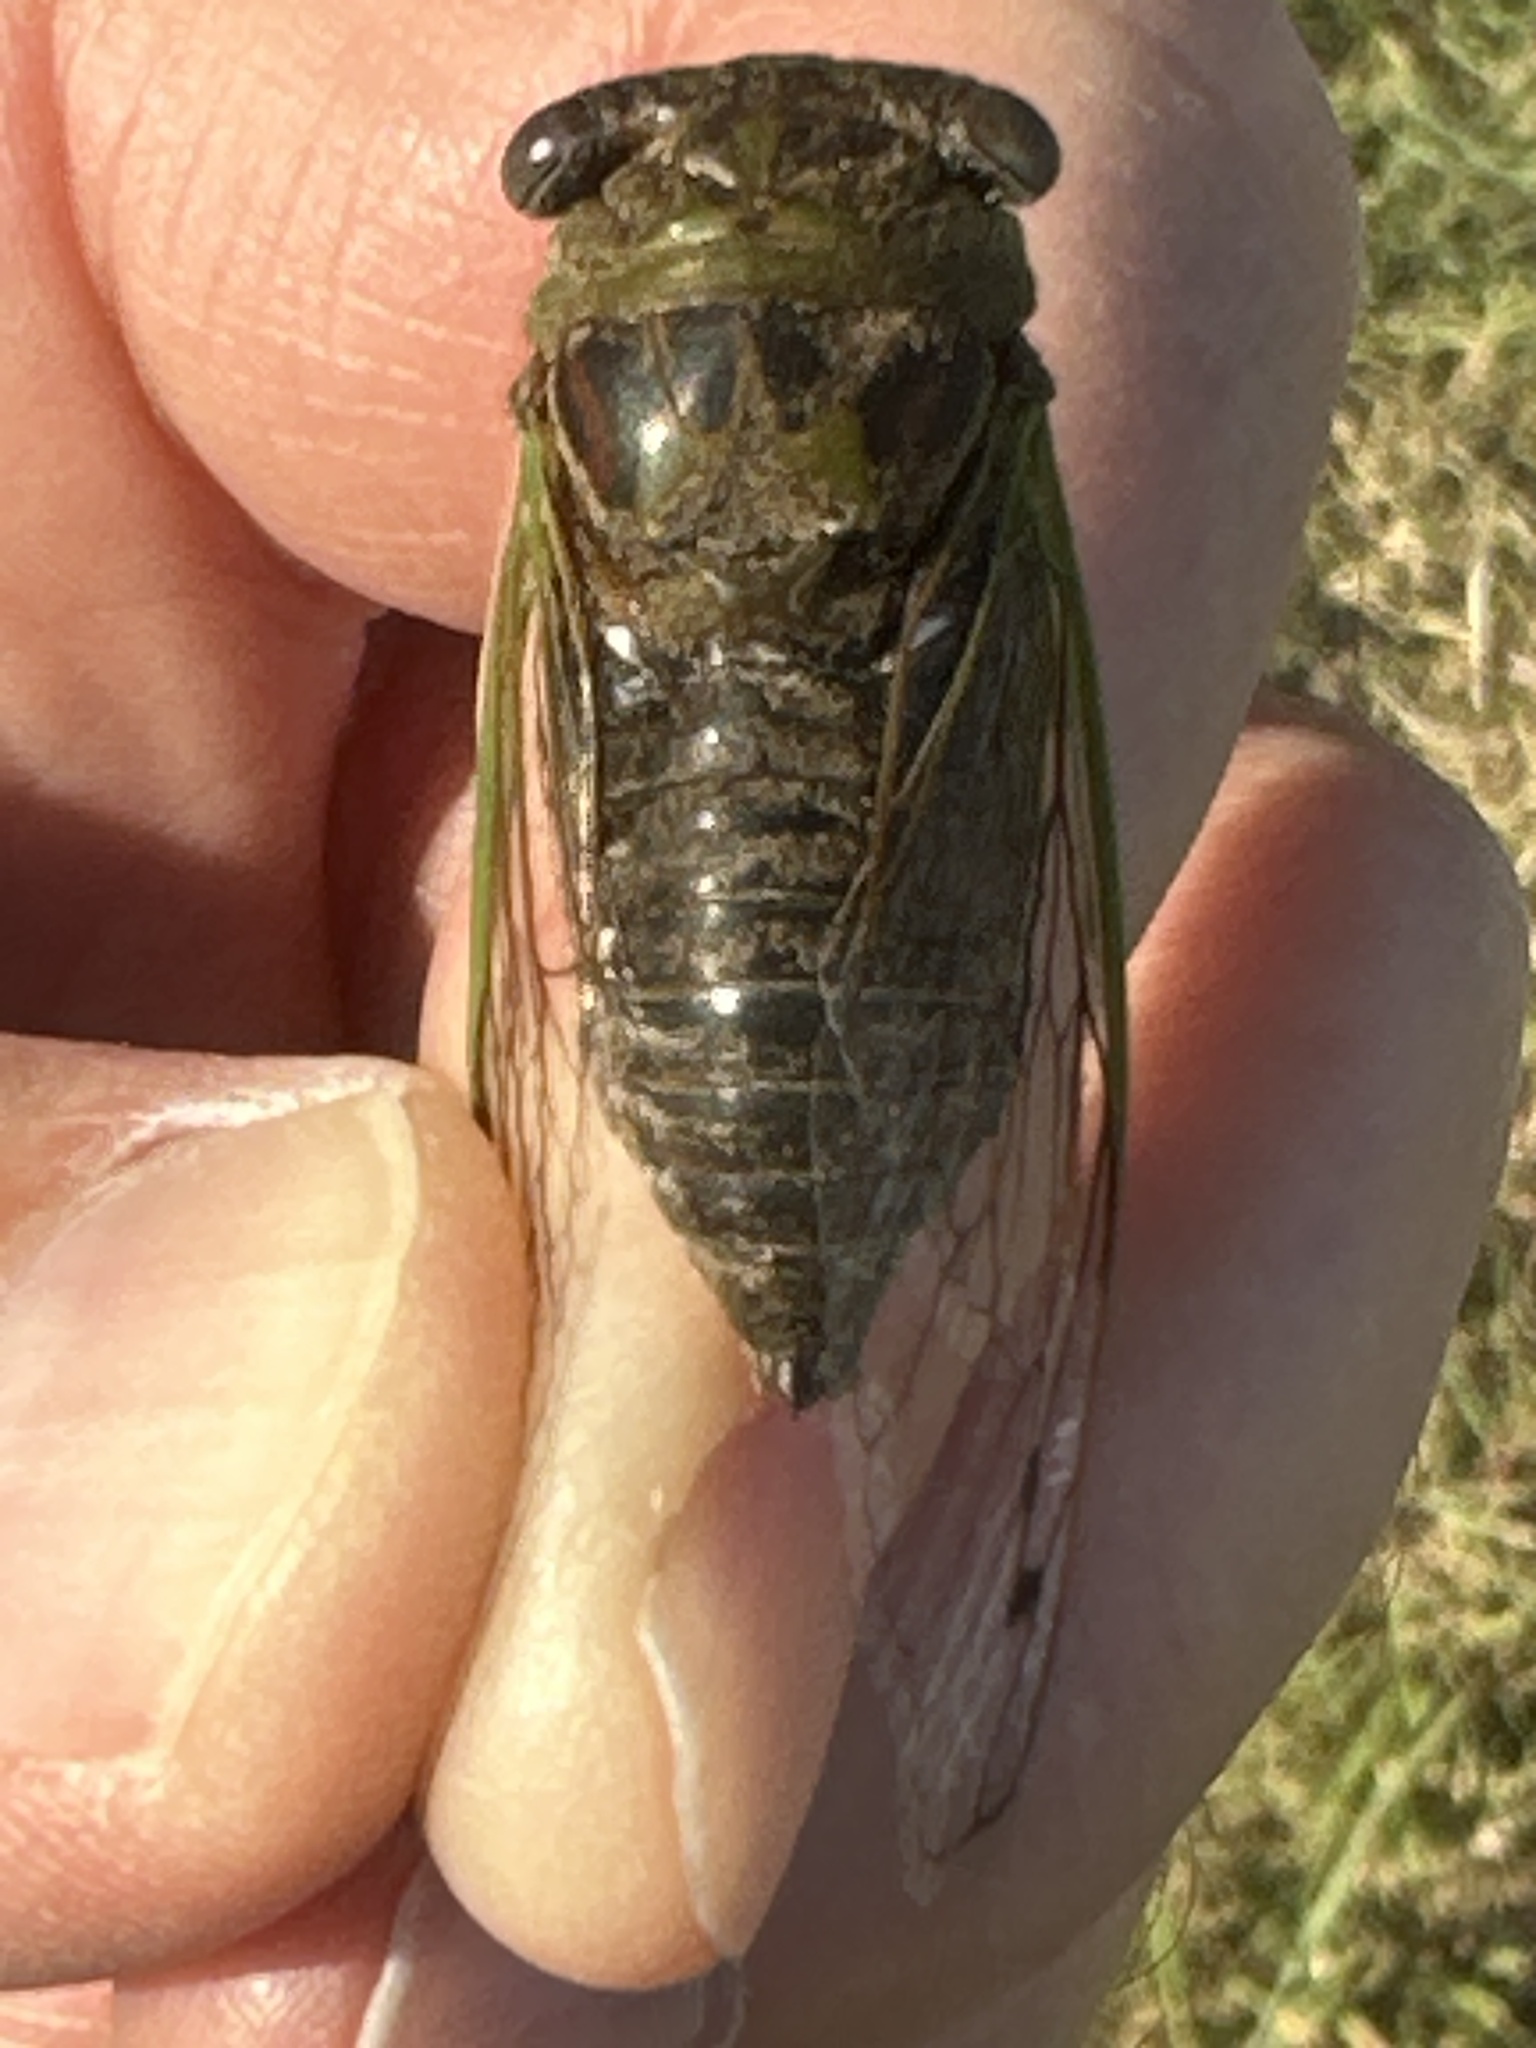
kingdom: Animalia
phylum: Arthropoda
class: Insecta
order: Hemiptera
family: Cicadidae
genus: Neotibicen
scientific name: Neotibicen aurifer
